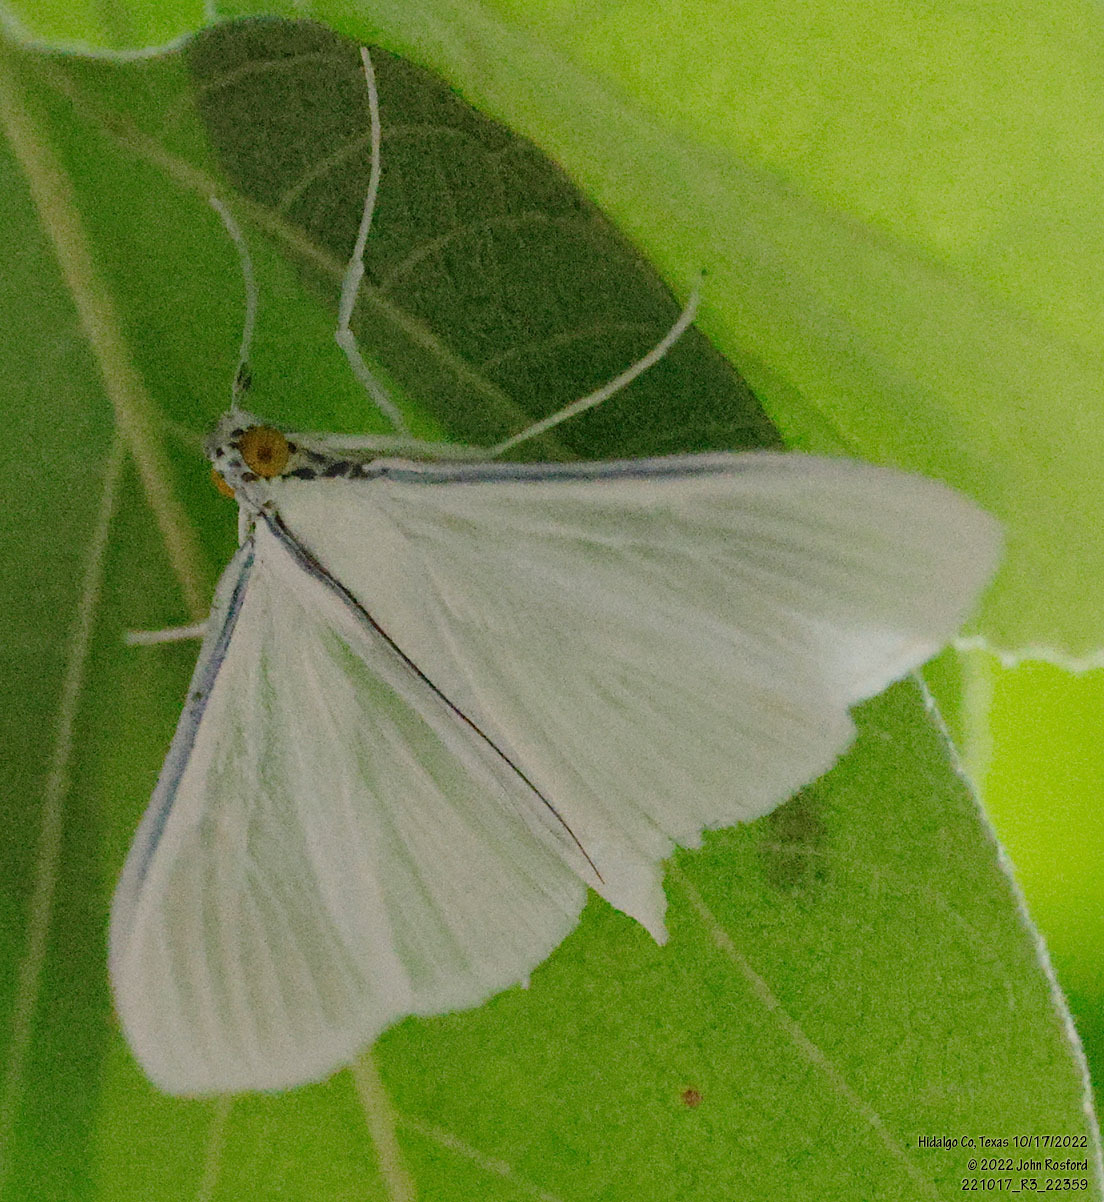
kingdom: Animalia
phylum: Arthropoda
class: Insecta
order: Lepidoptera
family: Crambidae
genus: Palpita
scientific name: Palpita flegia
